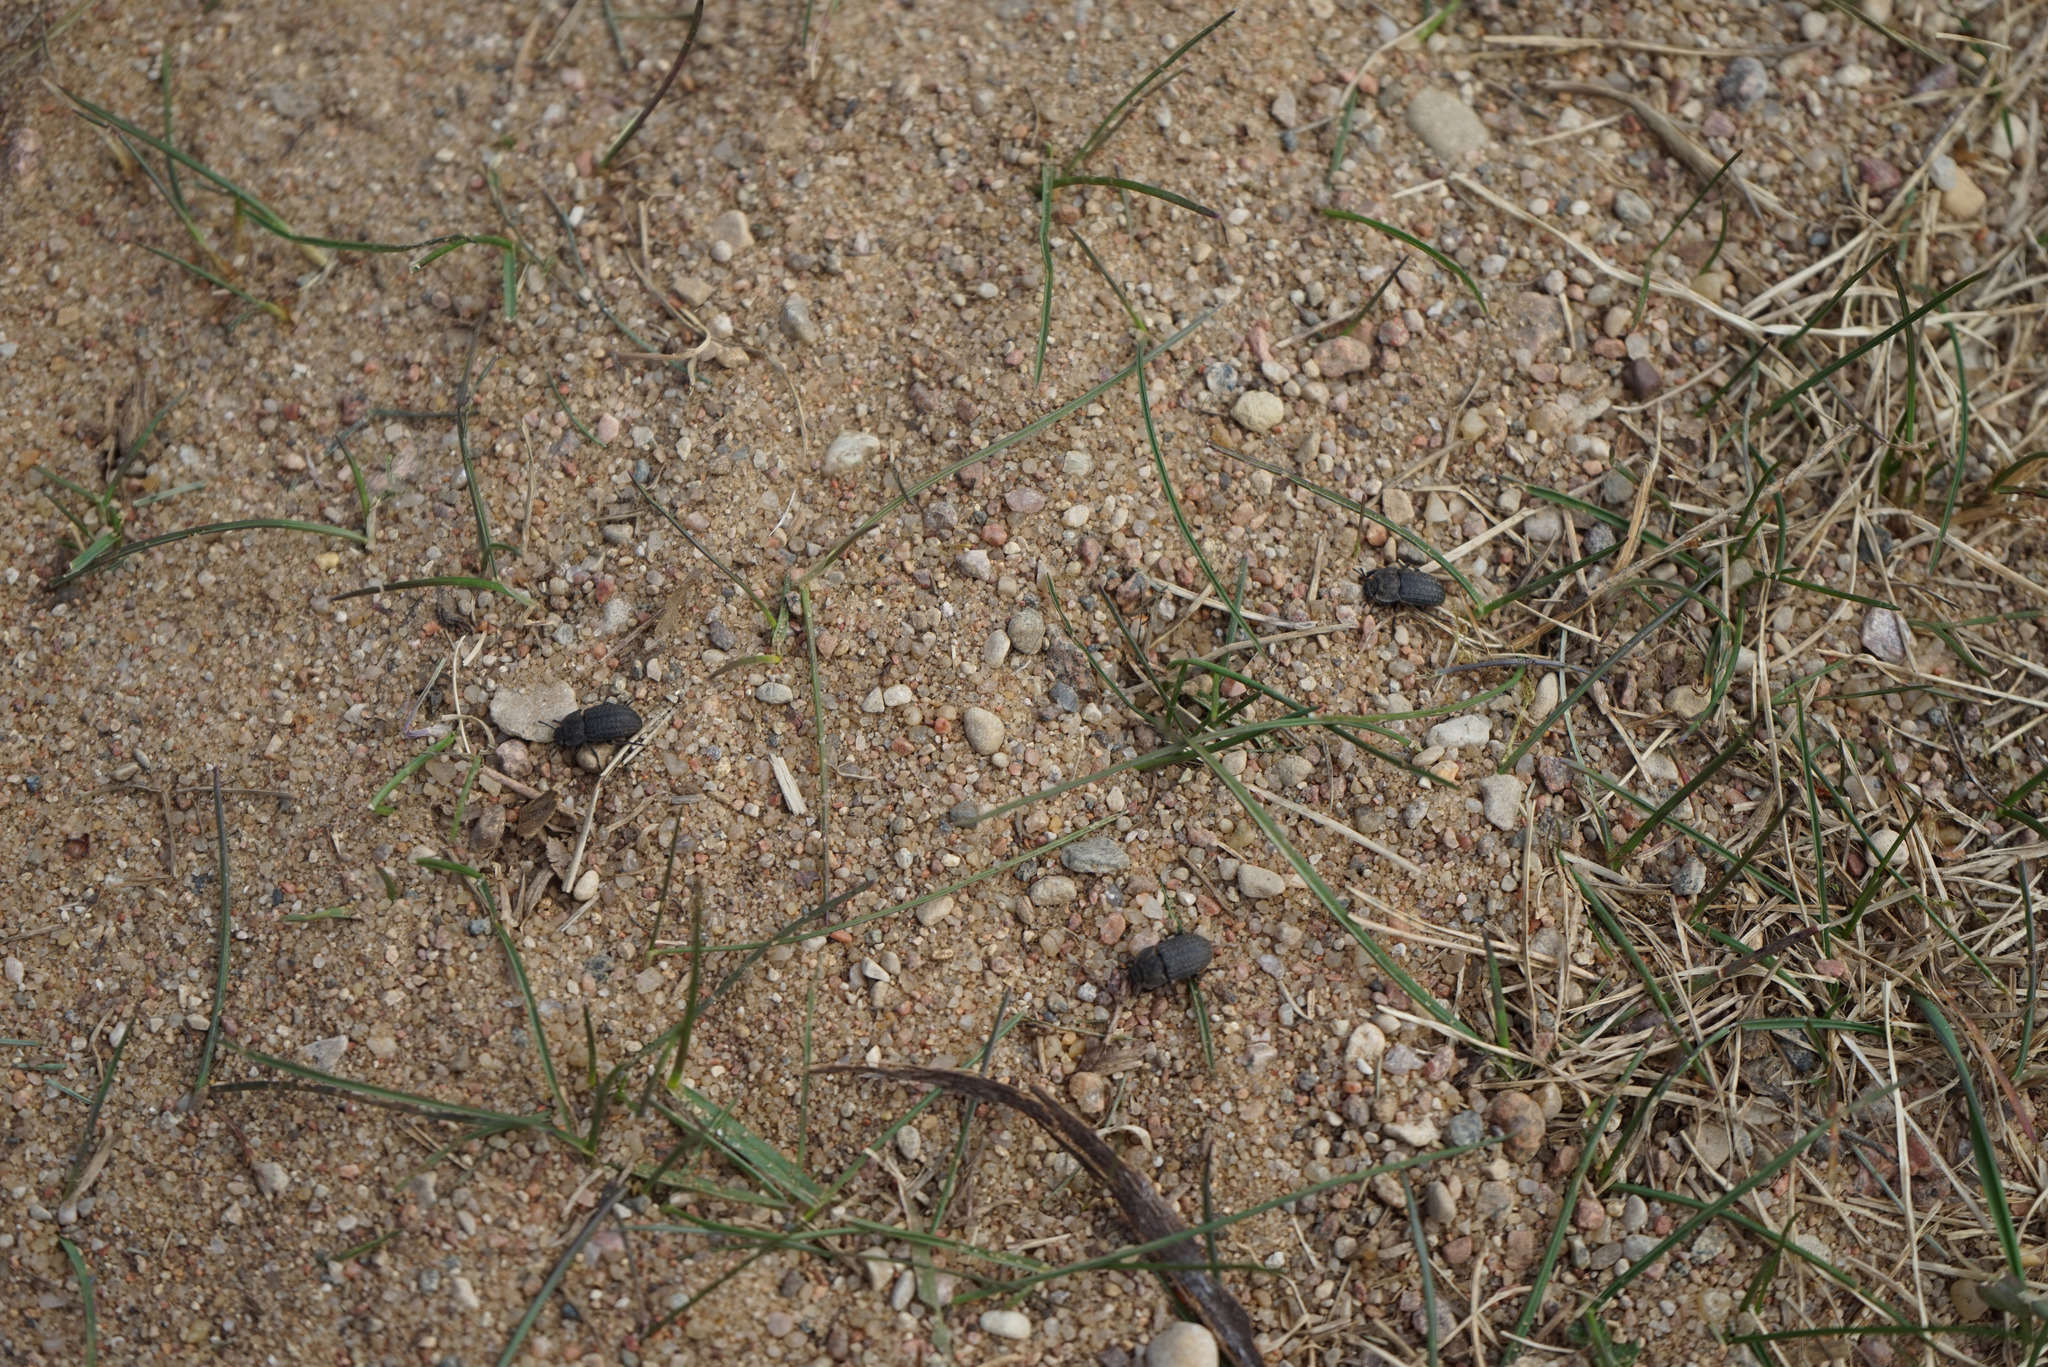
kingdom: Animalia
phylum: Arthropoda
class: Insecta
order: Coleoptera
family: Tenebrionidae
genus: Opatrum
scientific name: Opatrum sabulosum
